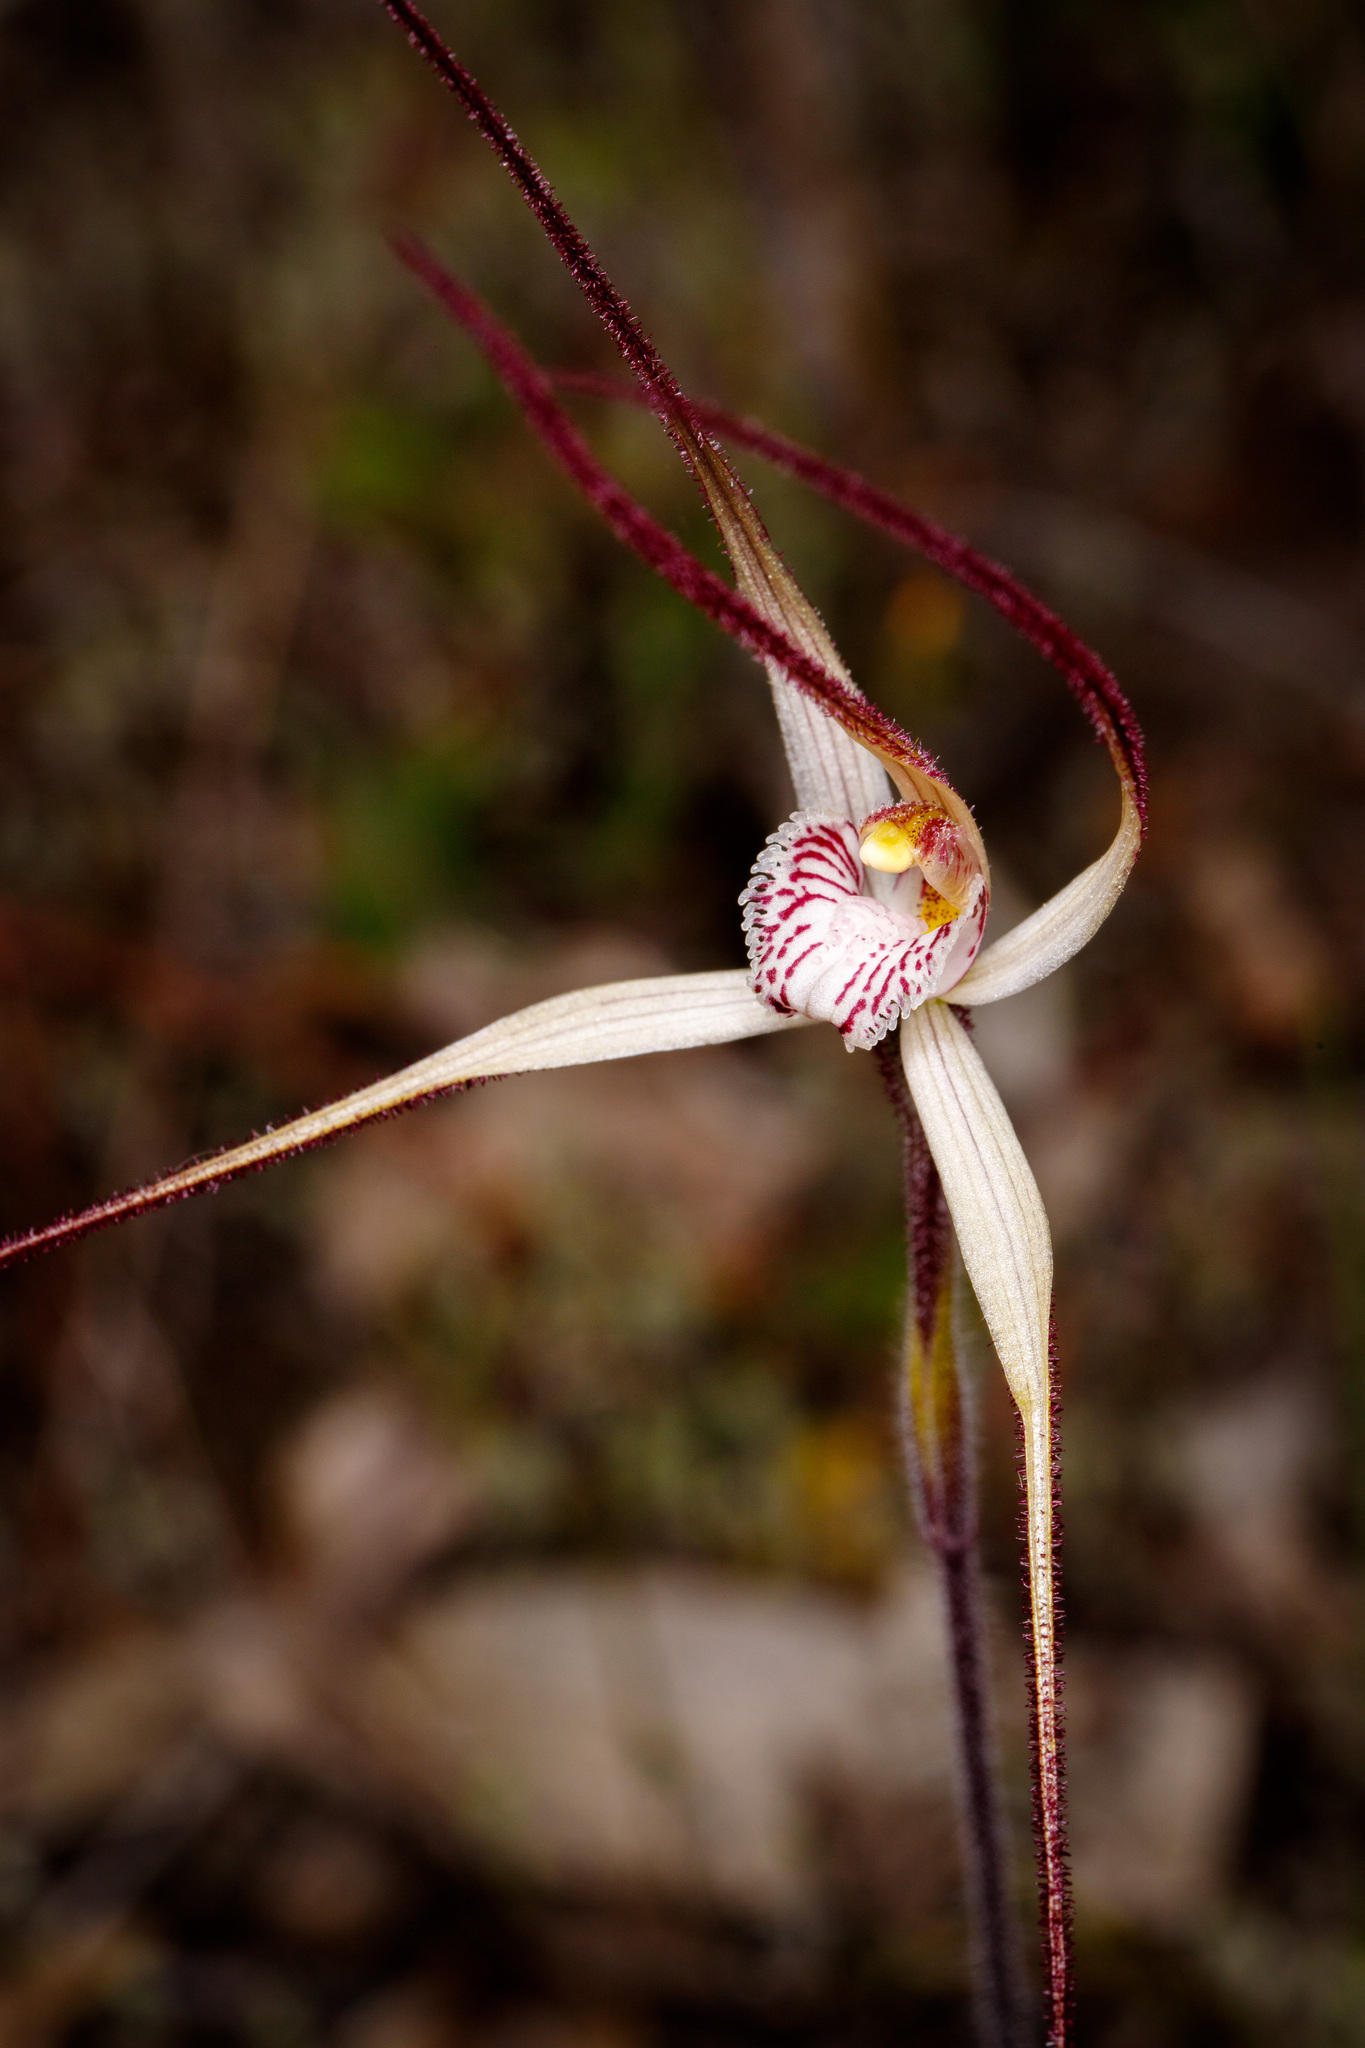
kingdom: Plantae
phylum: Tracheophyta
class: Liliopsida
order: Asparagales
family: Orchidaceae
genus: Caladenia
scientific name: Caladenia polychroma
